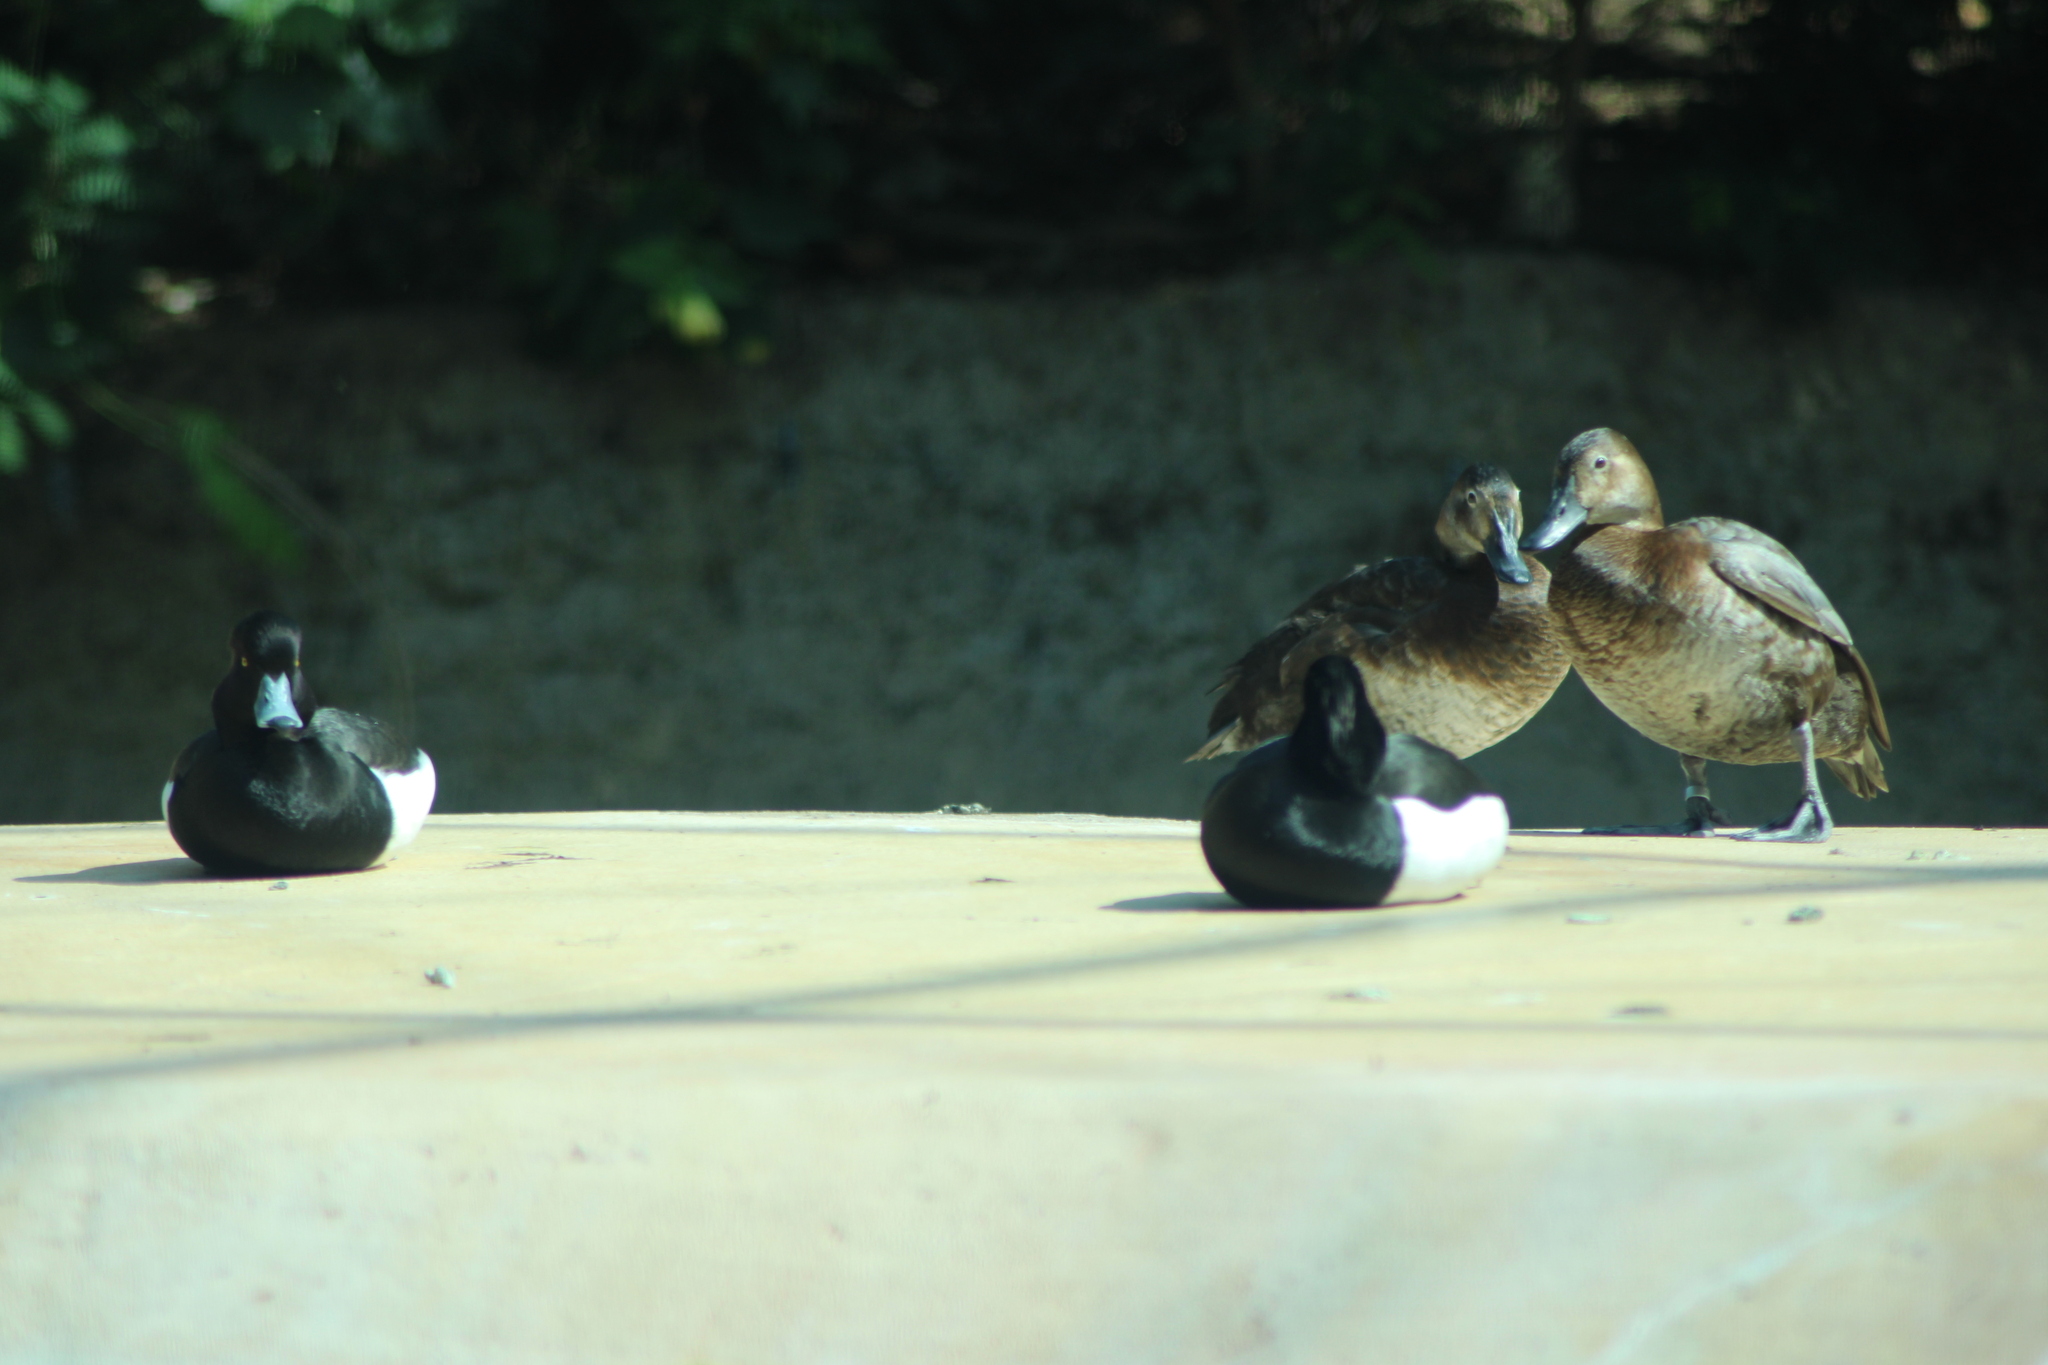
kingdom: Animalia
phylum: Chordata
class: Aves
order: Anseriformes
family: Anatidae
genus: Aythya
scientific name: Aythya fuligula
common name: Tufted duck
